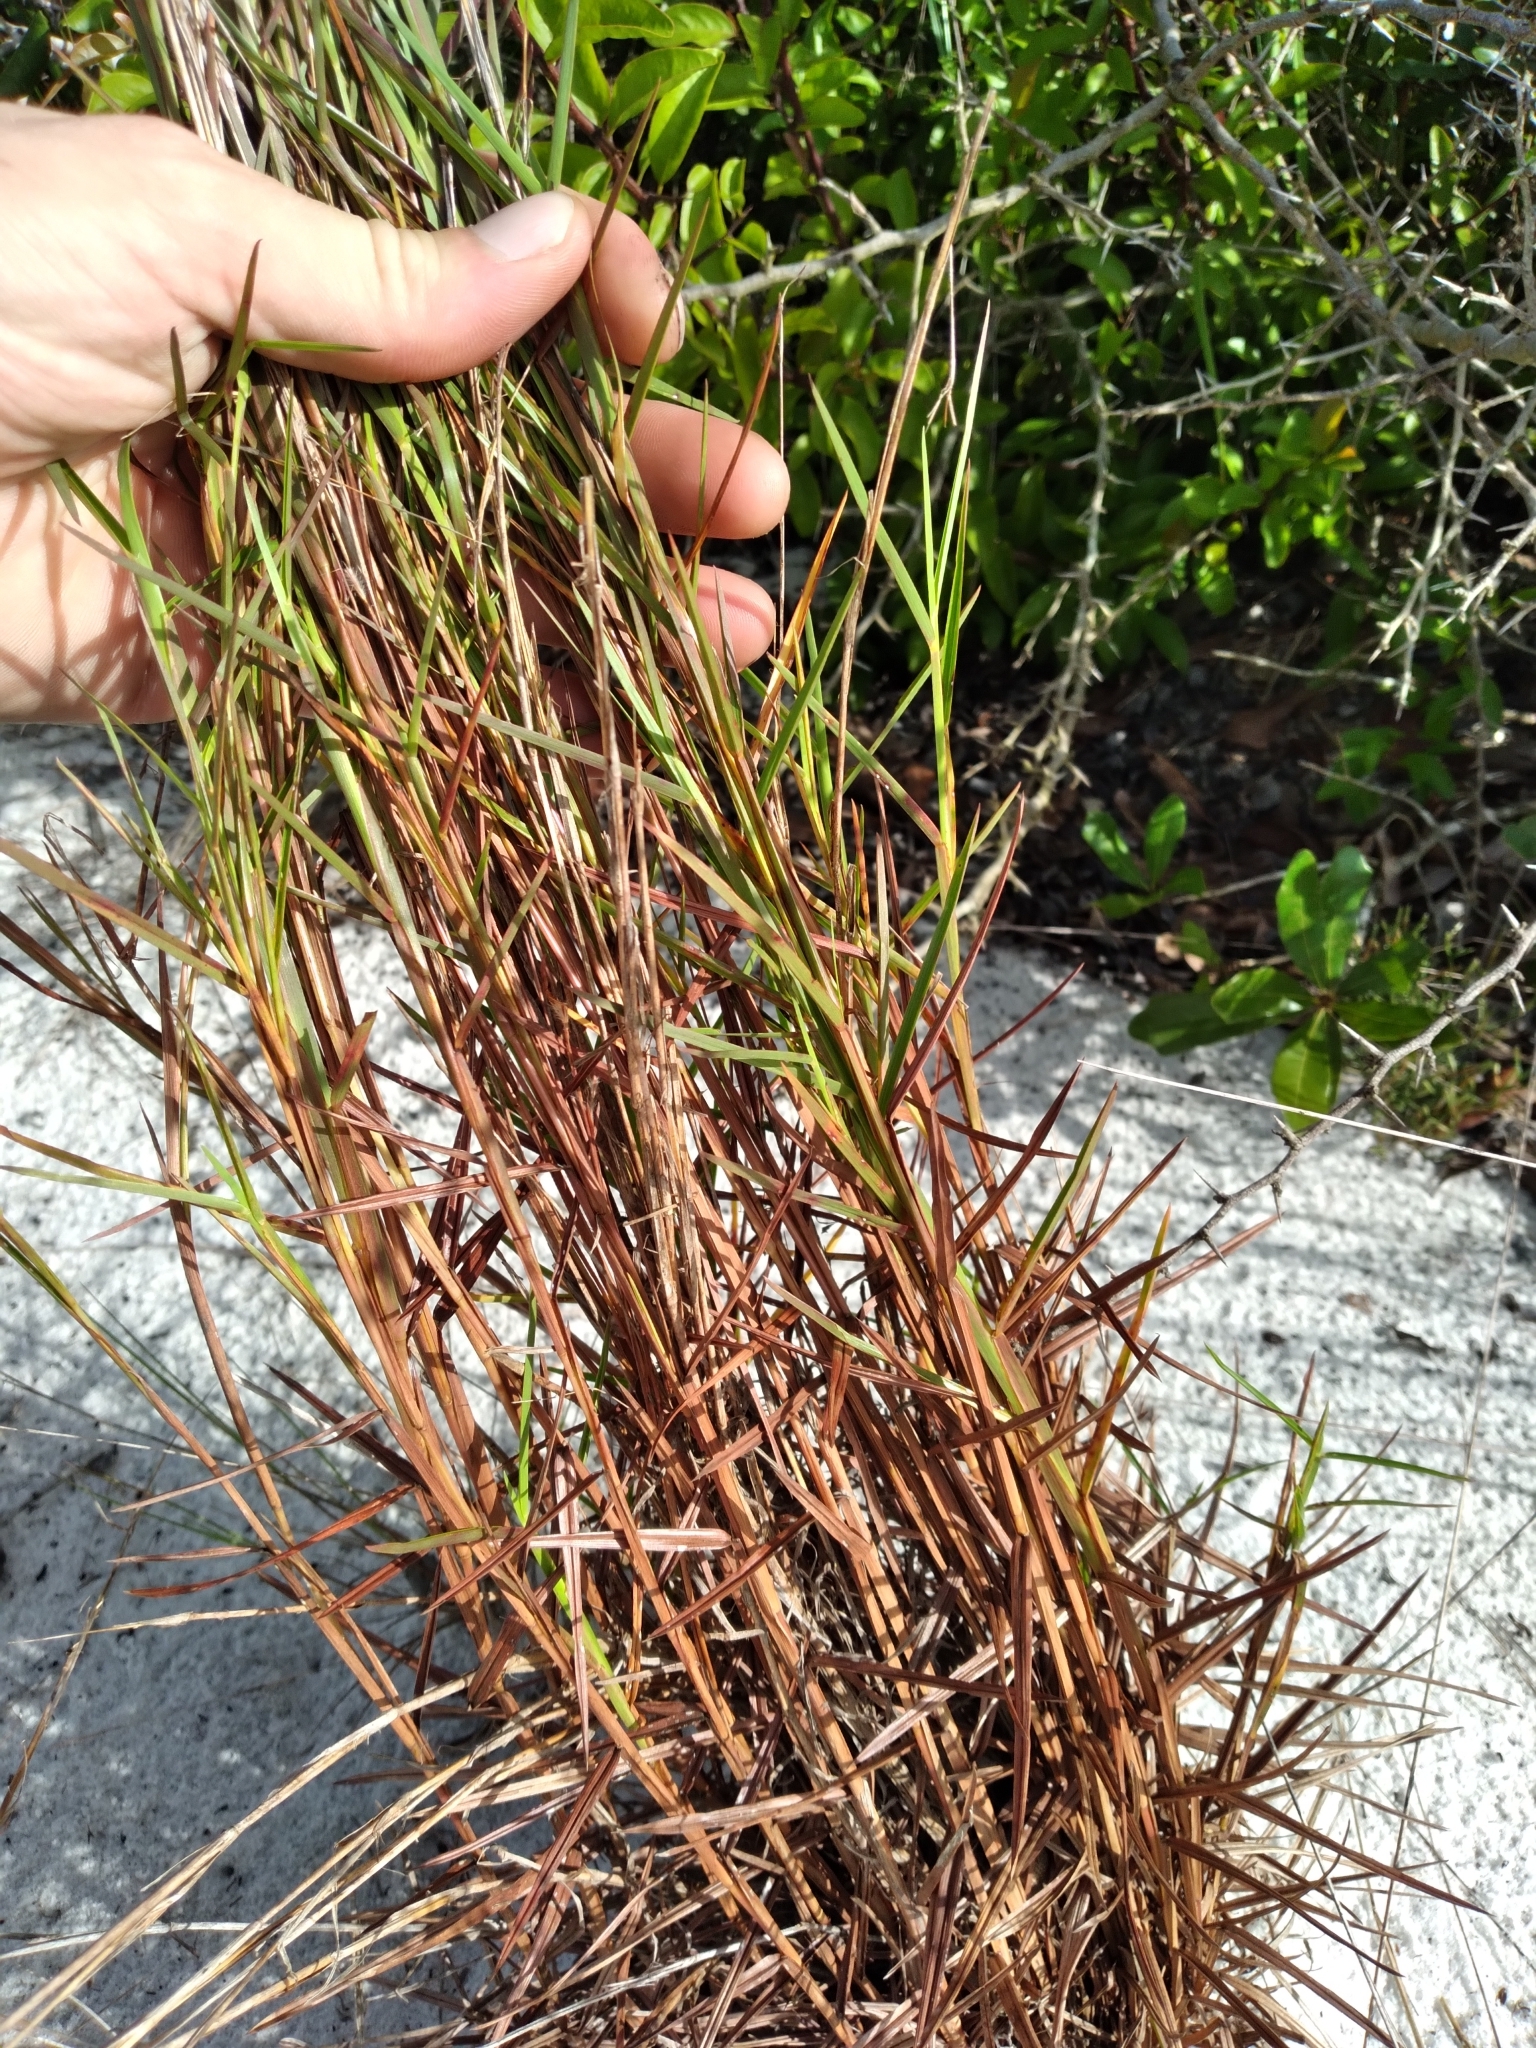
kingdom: Plantae
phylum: Tracheophyta
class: Liliopsida
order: Poales
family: Poaceae
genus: Schizachyrium
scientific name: Schizachyrium niveum
